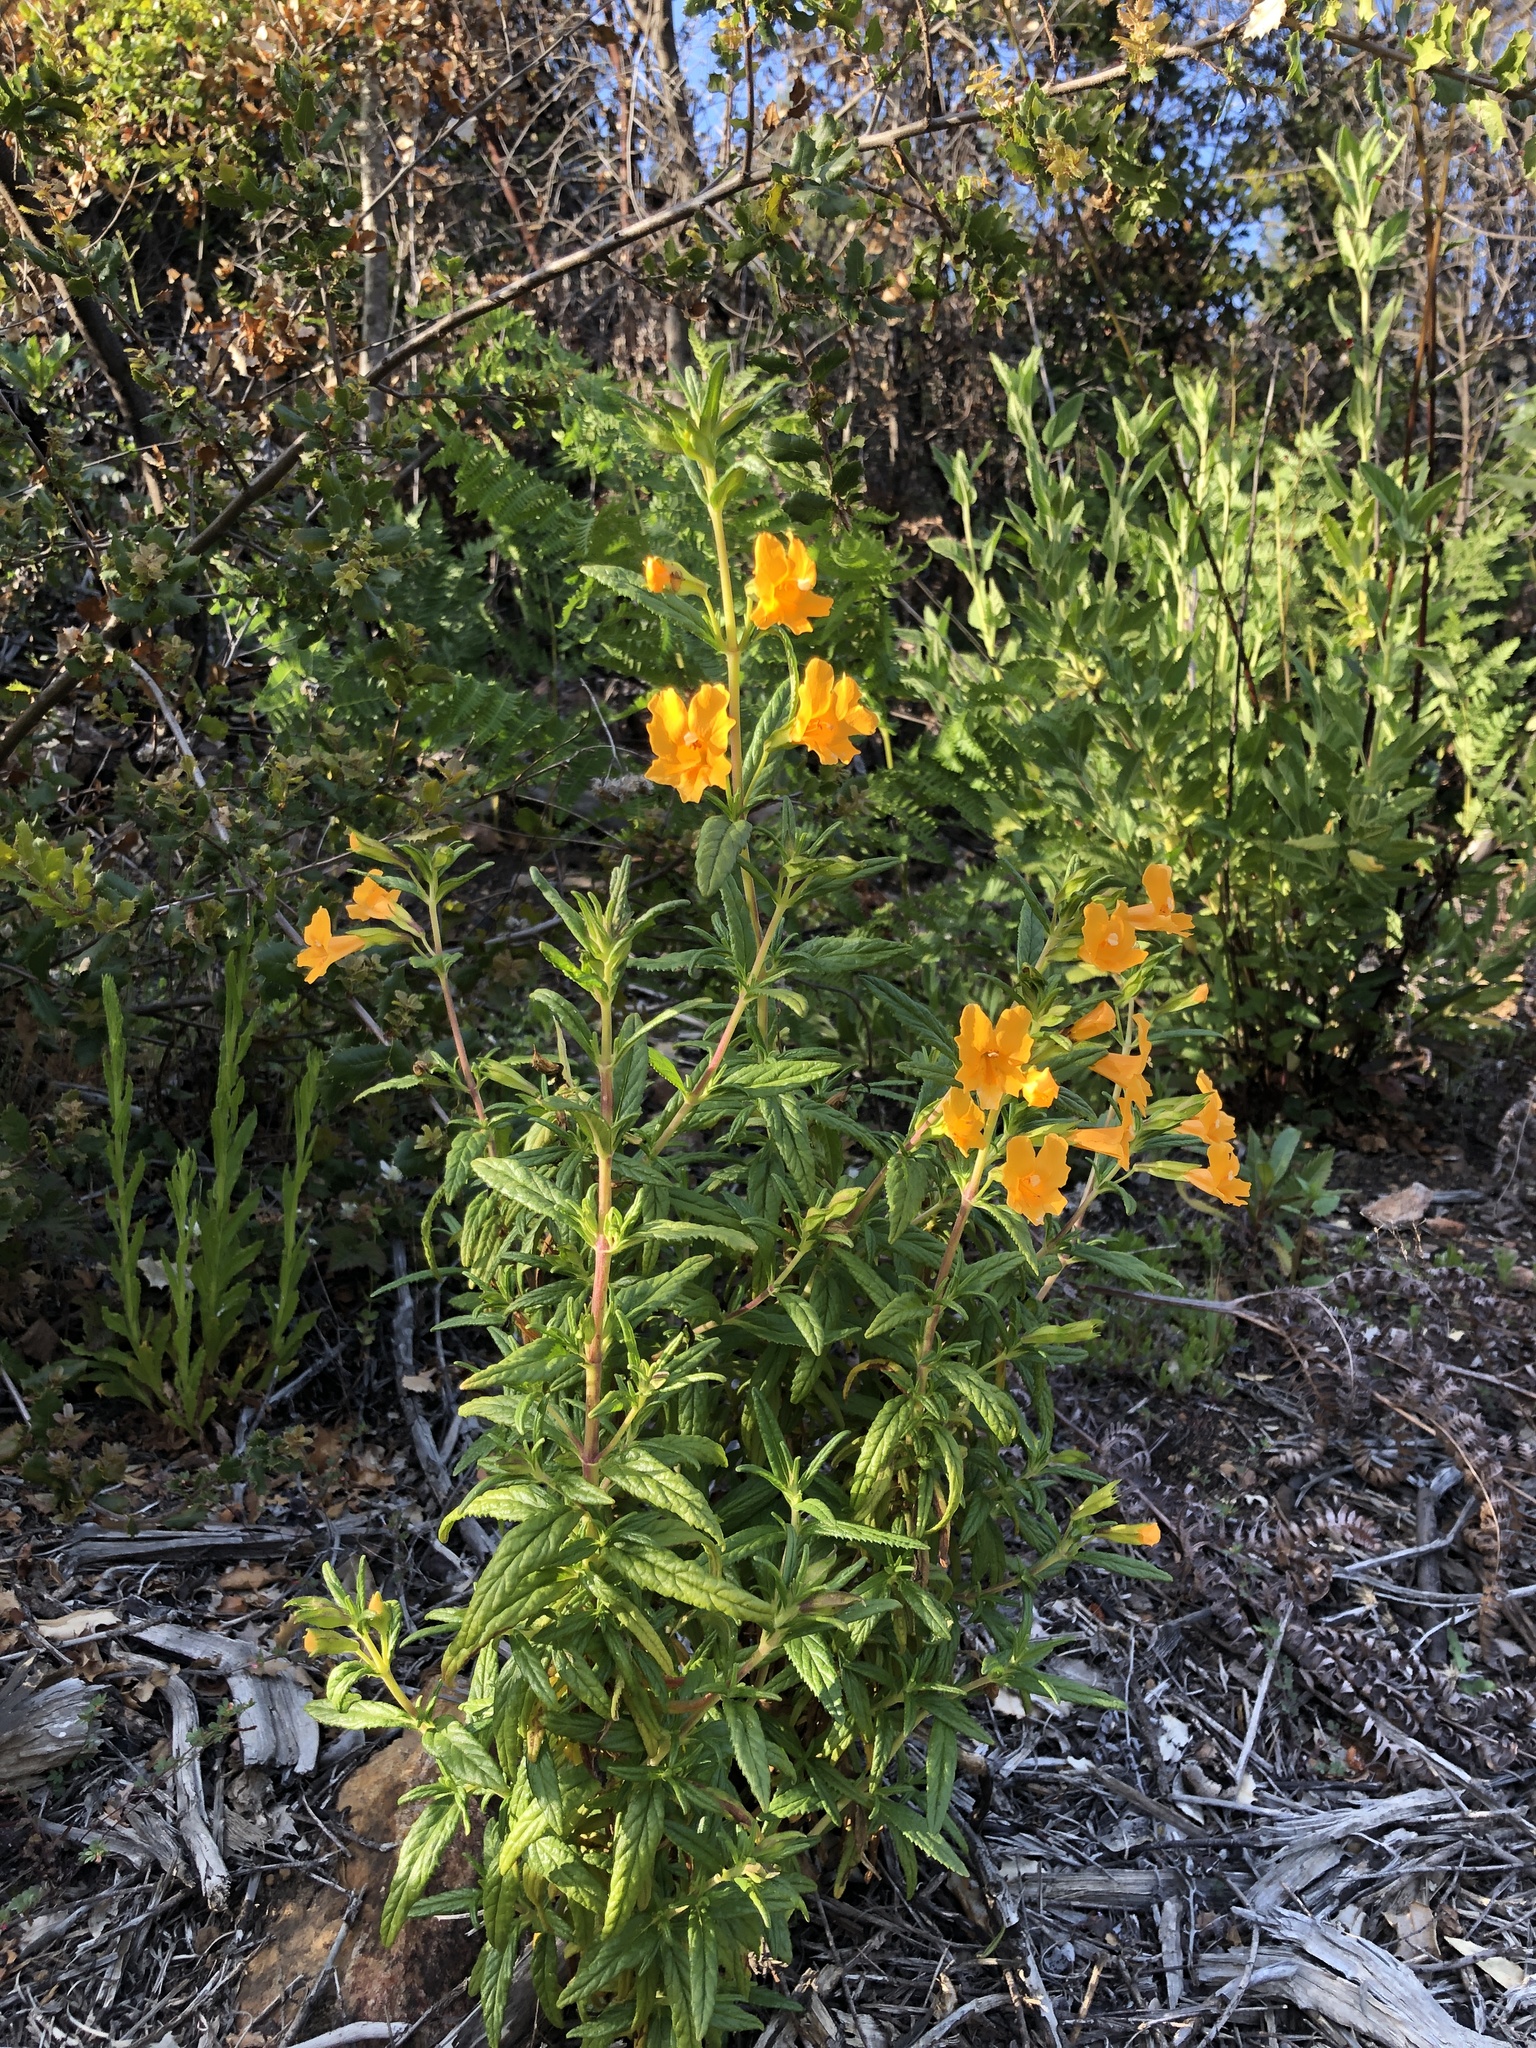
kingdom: Plantae
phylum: Tracheophyta
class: Magnoliopsida
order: Lamiales
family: Phrymaceae
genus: Diplacus
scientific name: Diplacus aurantiacus
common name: Bush monkey-flower
